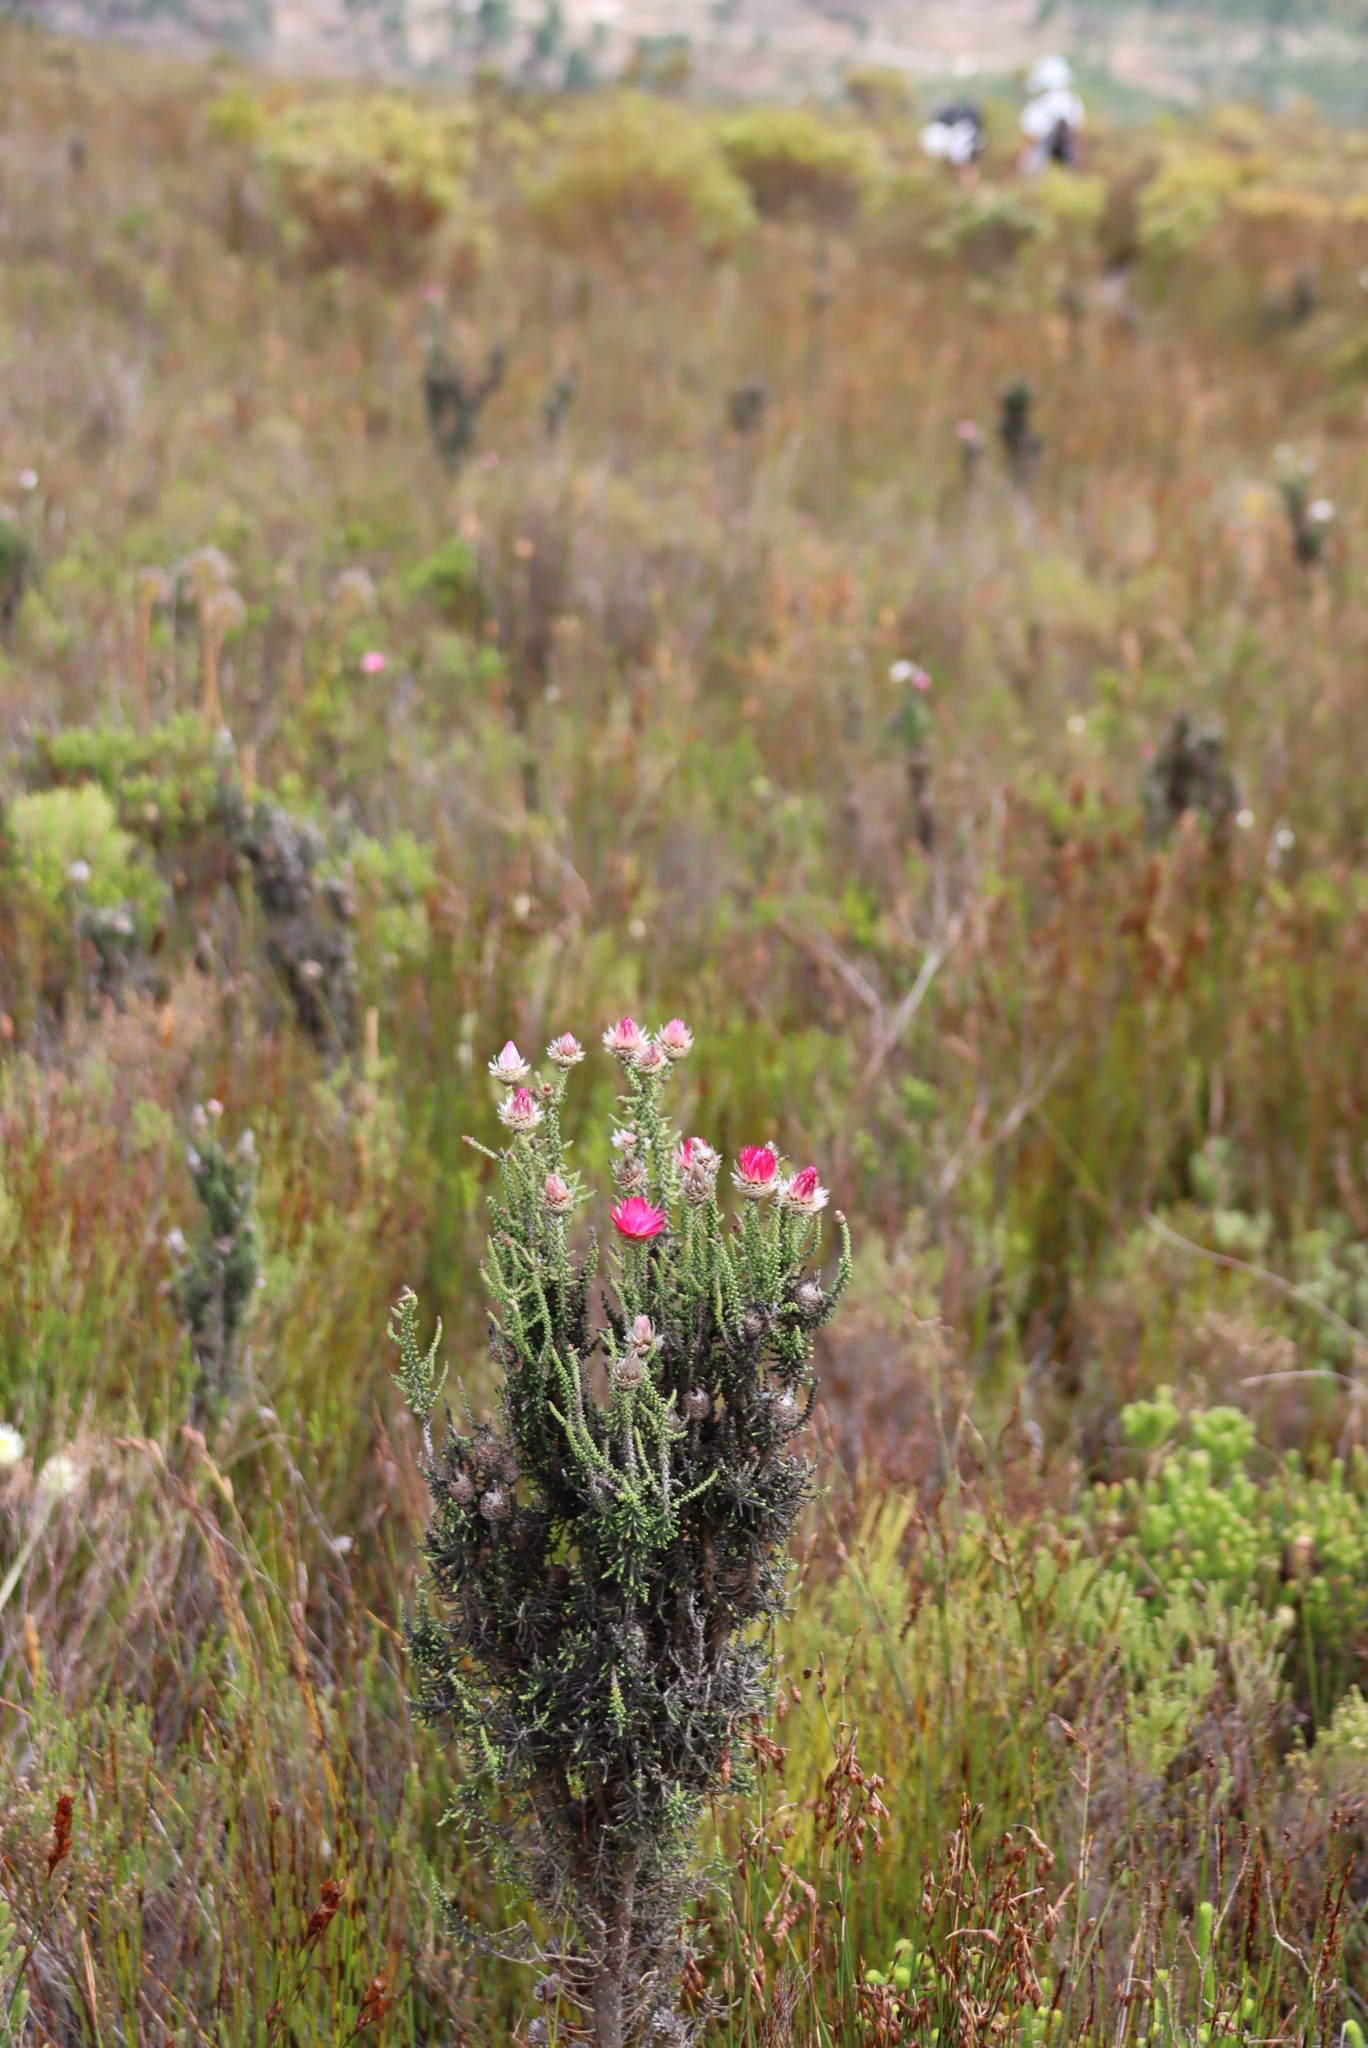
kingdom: Plantae
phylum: Tracheophyta
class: Magnoliopsida
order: Asterales
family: Asteraceae
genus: Phaenocoma
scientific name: Phaenocoma prolifera
